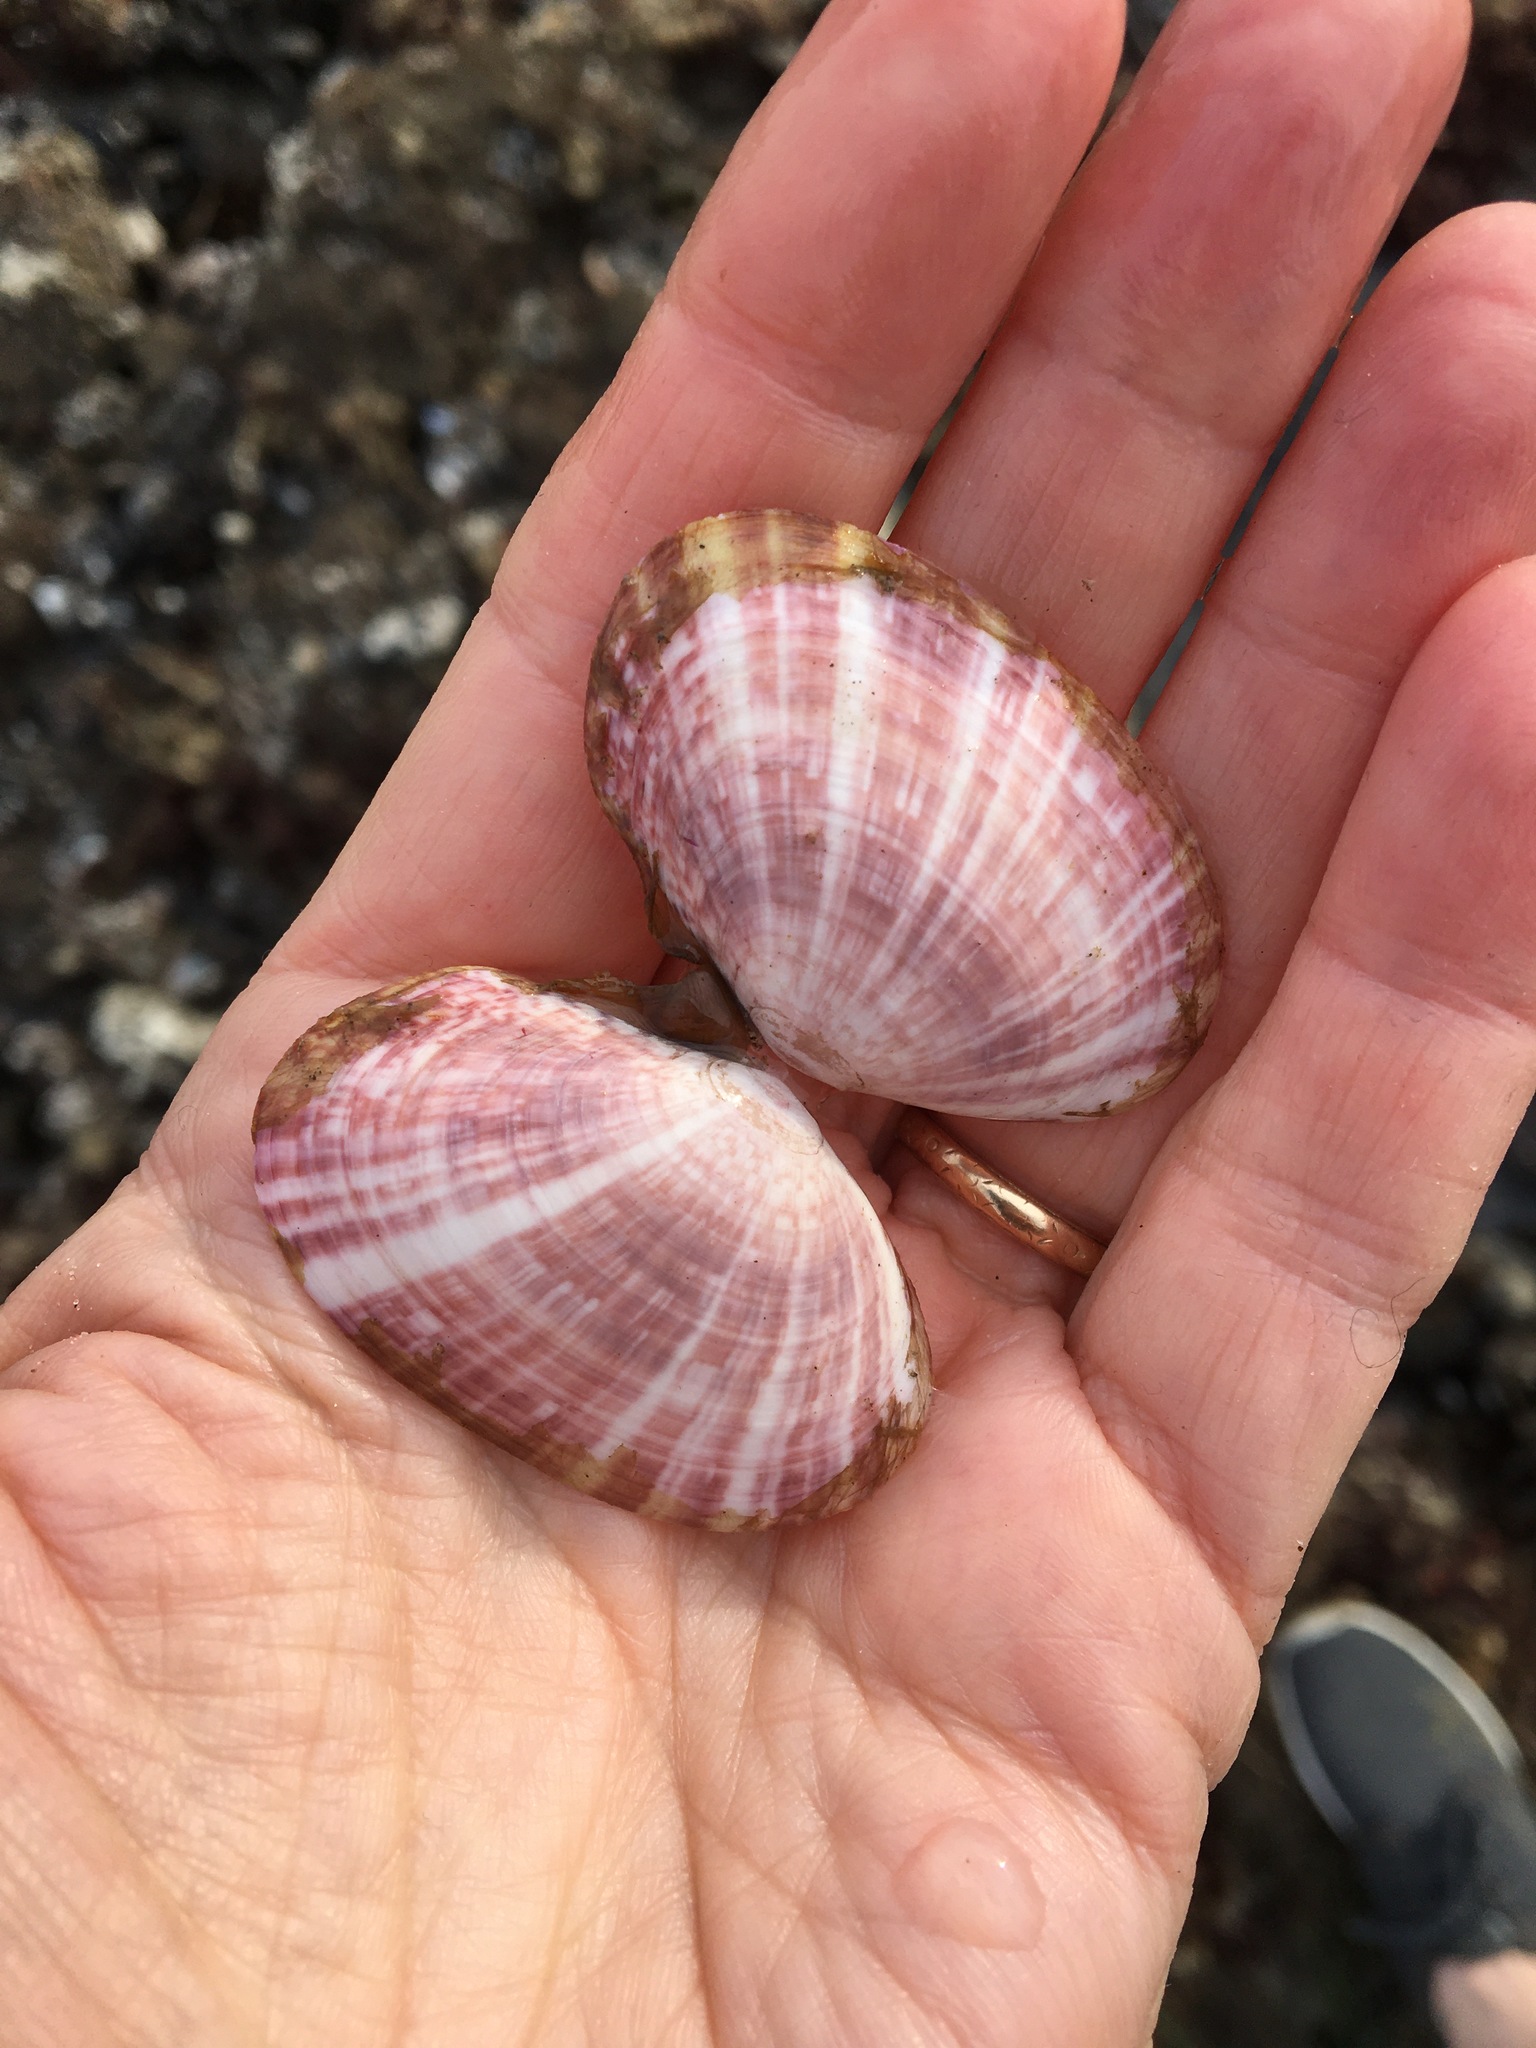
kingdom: Animalia
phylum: Mollusca
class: Bivalvia
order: Cardiida
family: Psammobiidae
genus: Gari
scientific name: Gari californica
